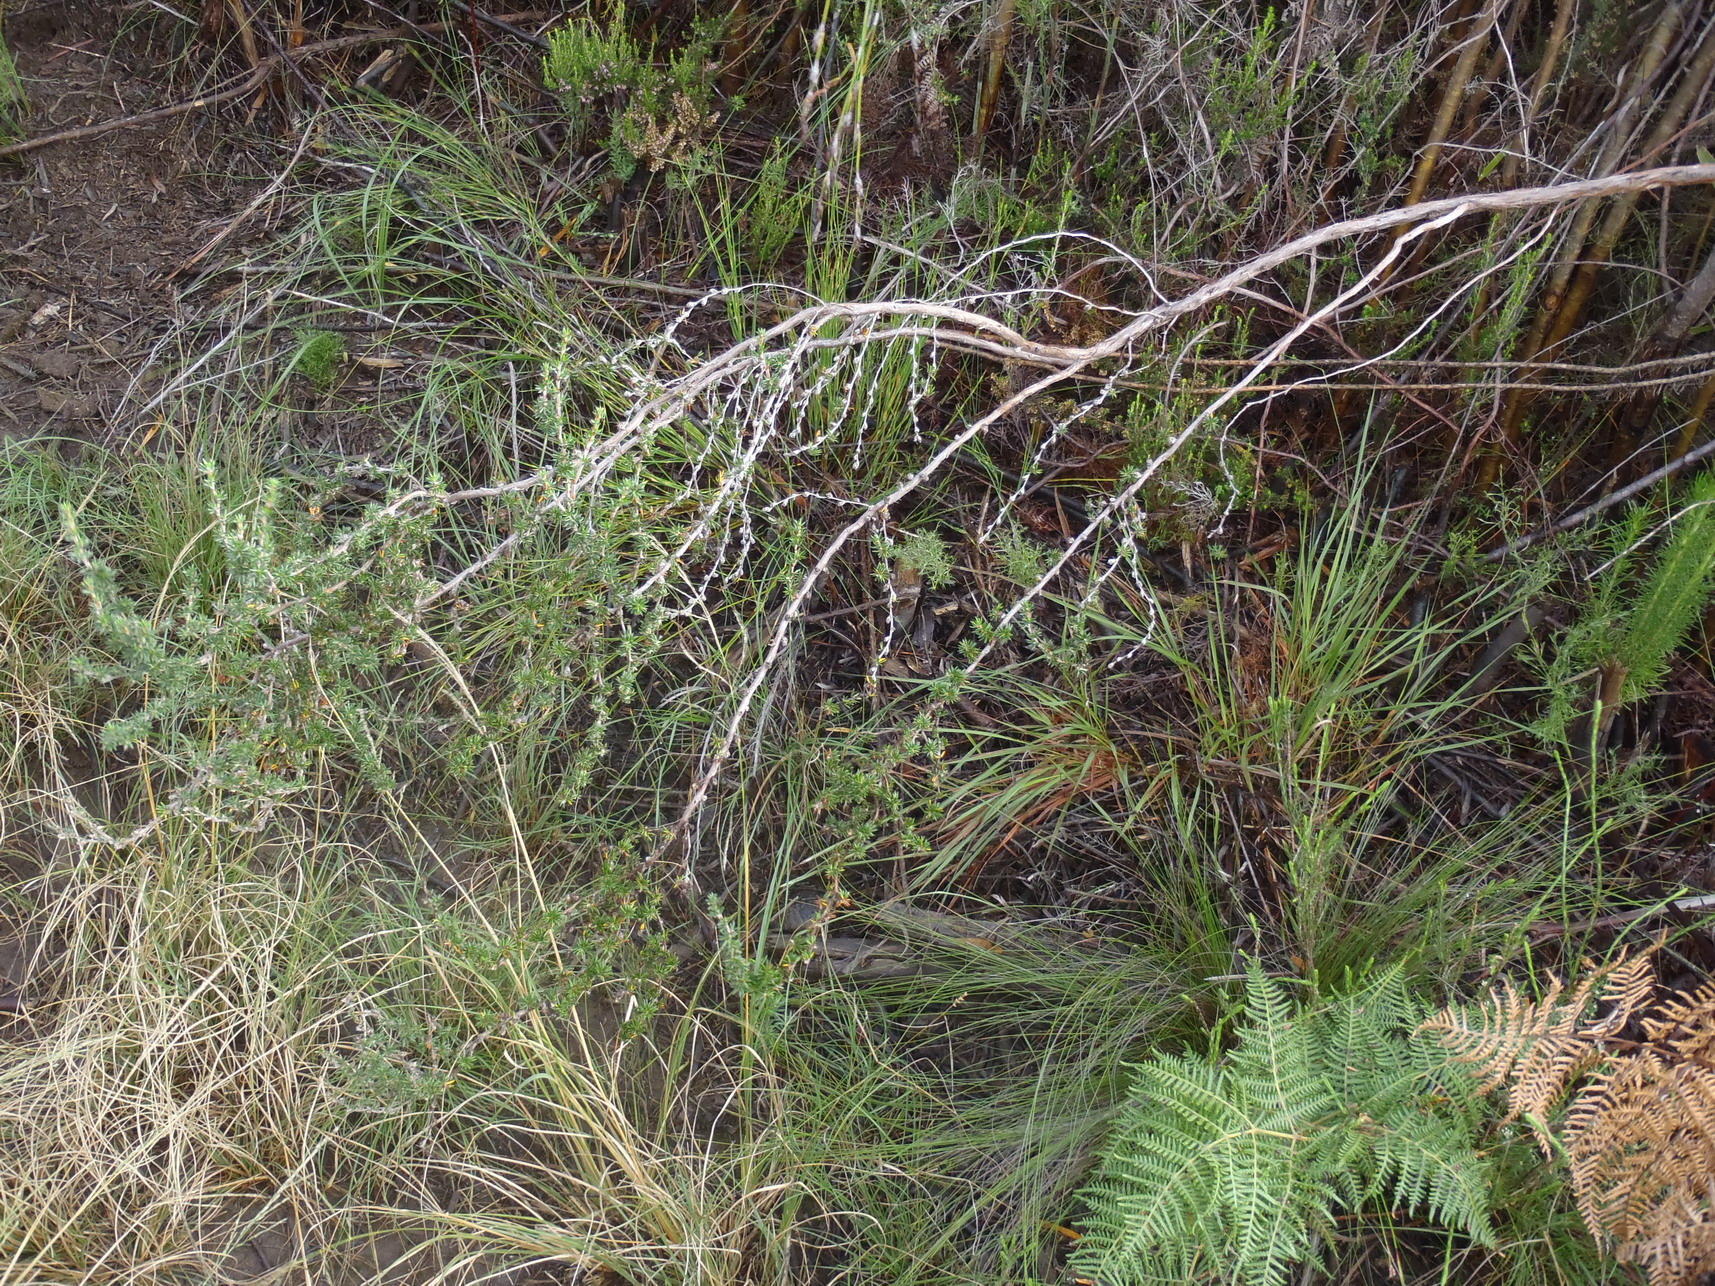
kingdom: Plantae
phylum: Tracheophyta
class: Magnoliopsida
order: Rosales
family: Rosaceae
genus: Cliffortia
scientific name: Cliffortia stricta
